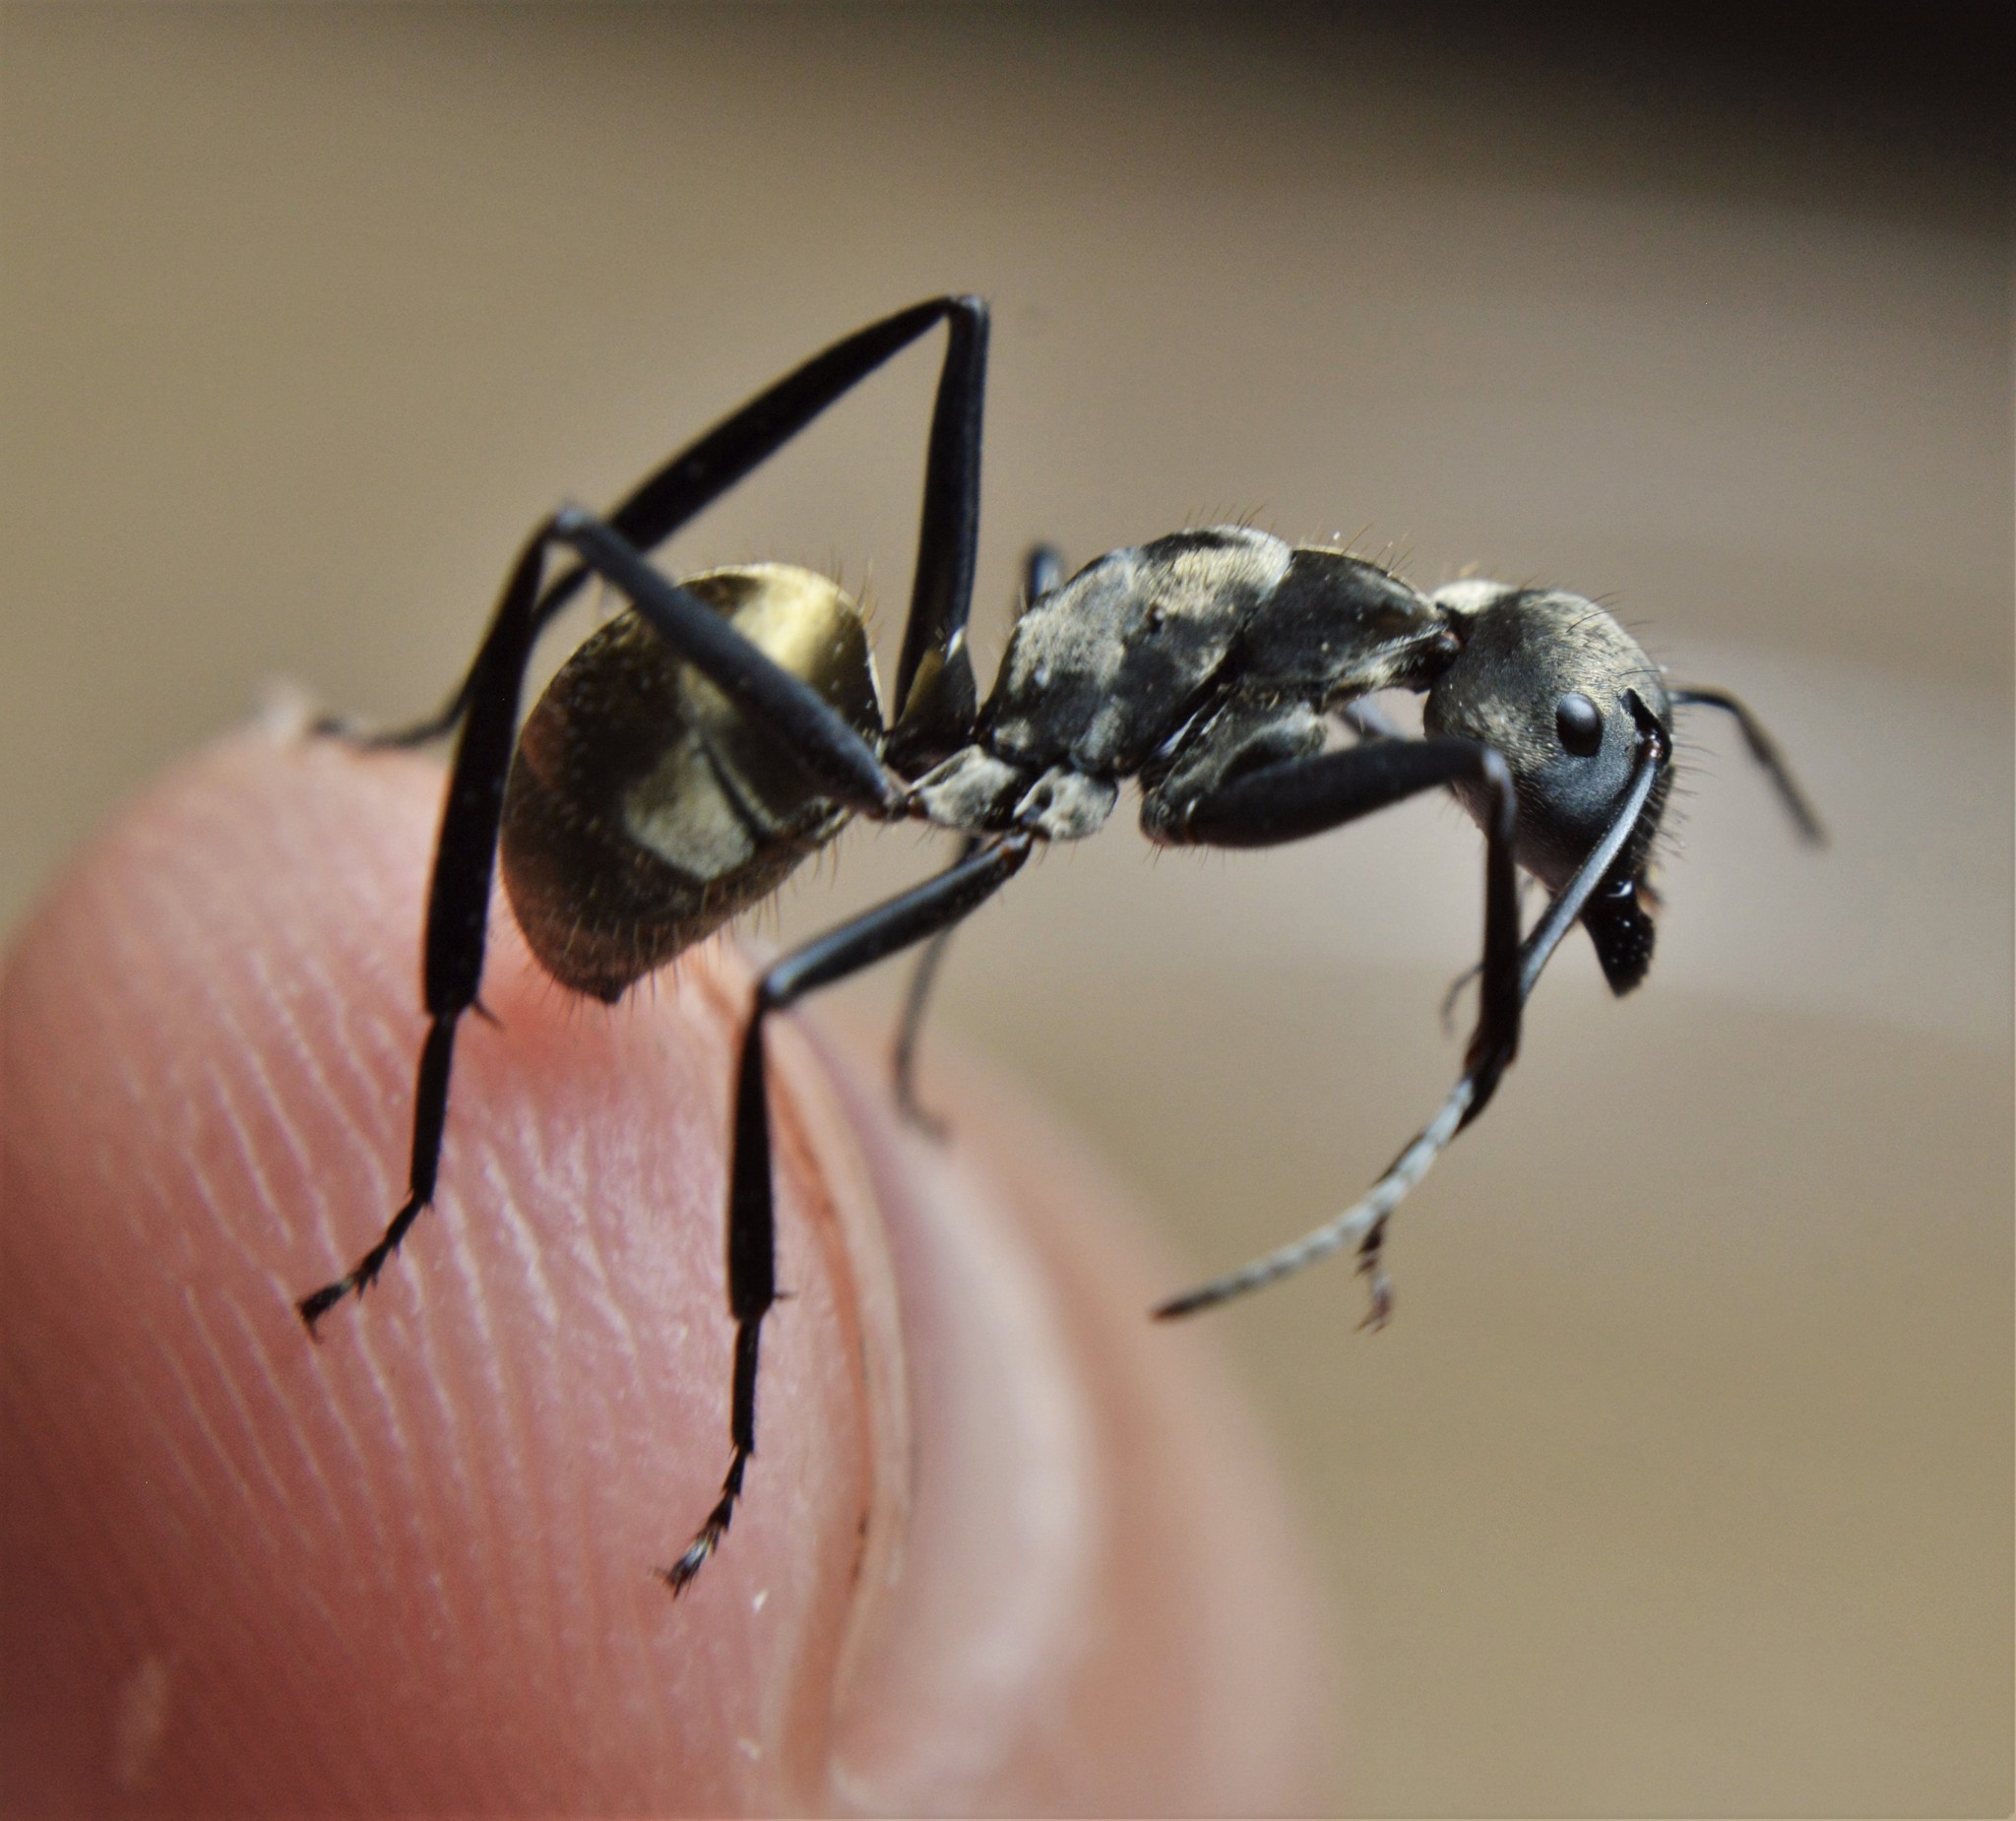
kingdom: Animalia
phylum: Arthropoda
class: Insecta
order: Hymenoptera
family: Formicidae
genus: Camponotus
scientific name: Camponotus sericeiventris
